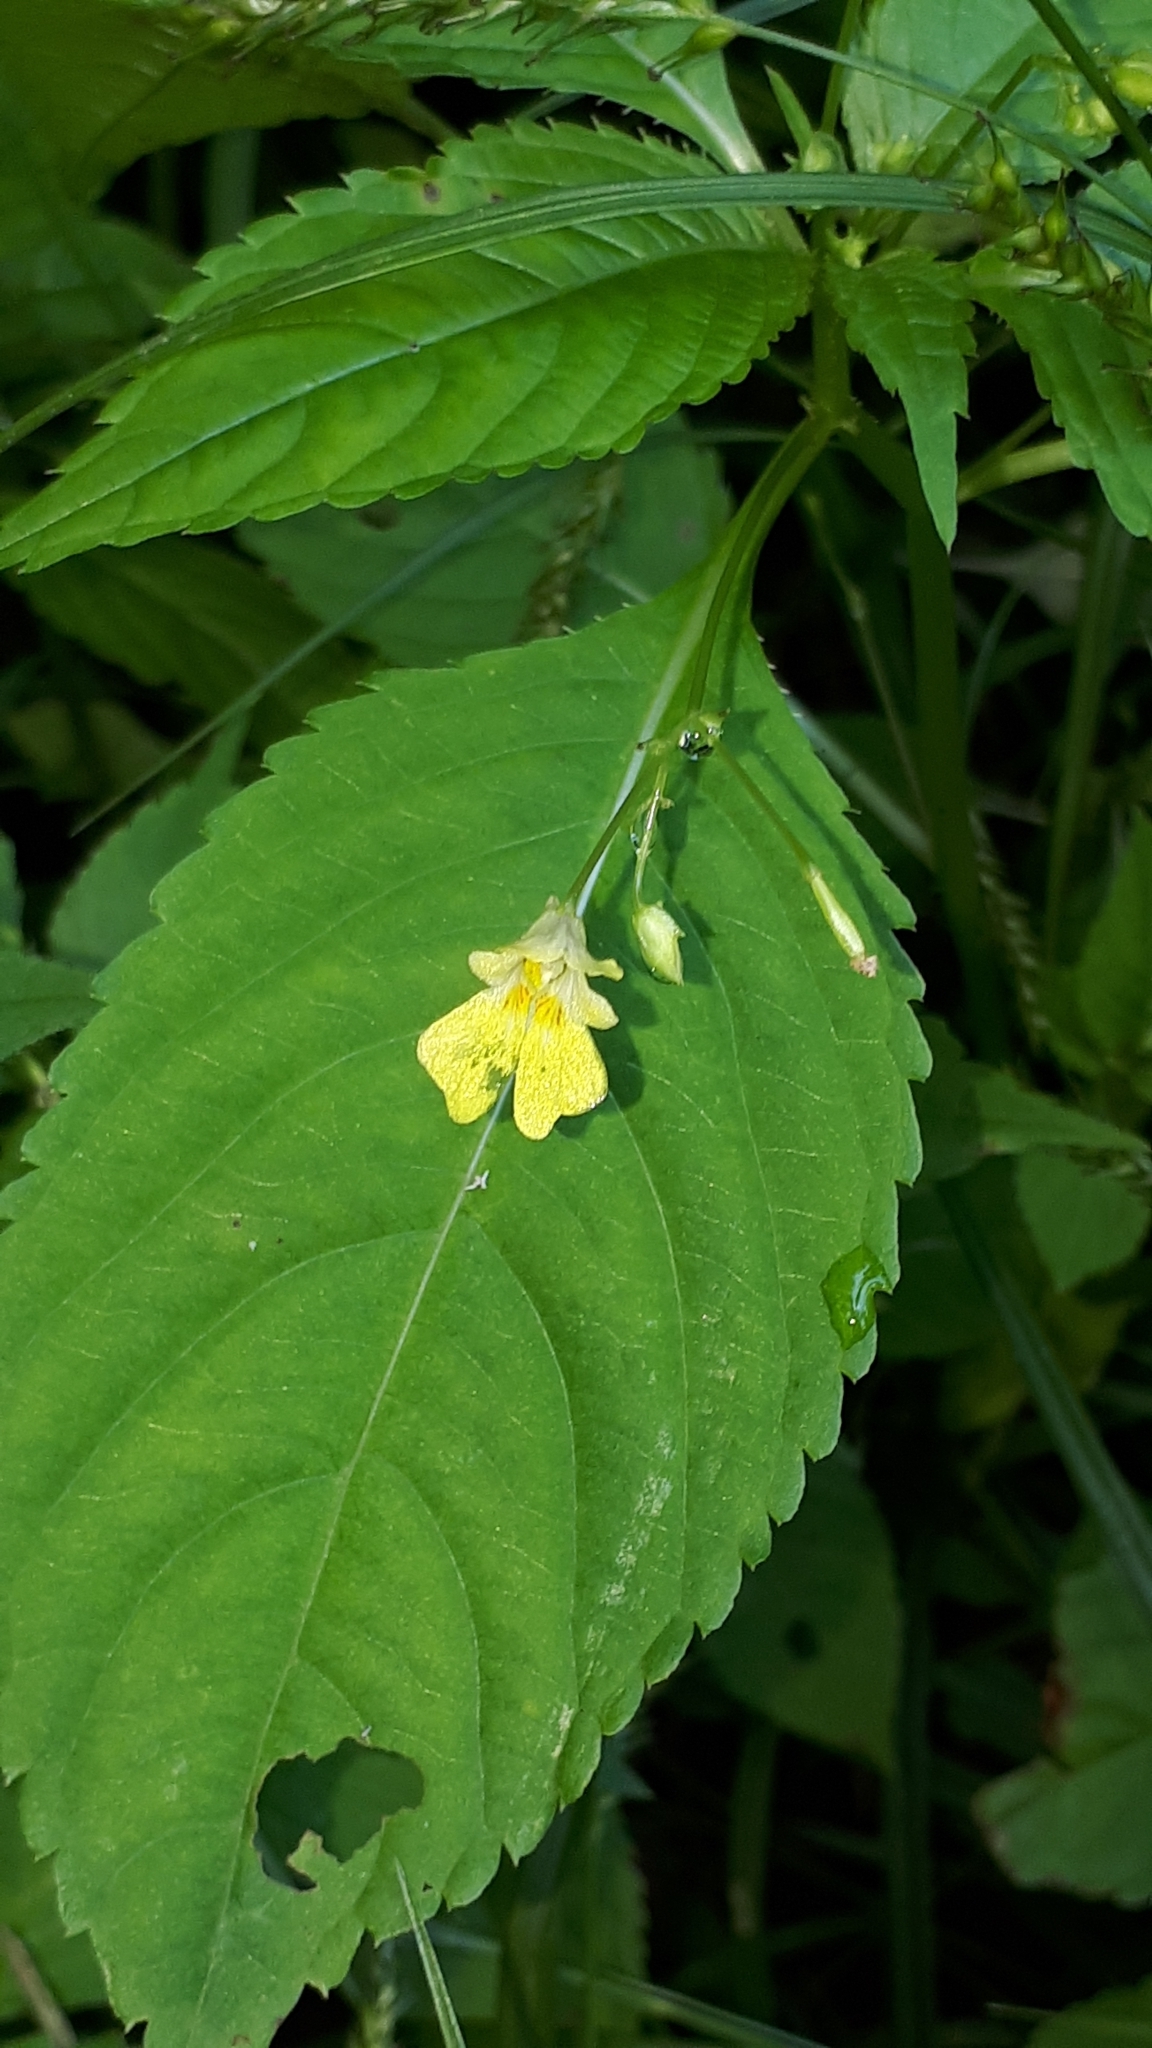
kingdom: Plantae
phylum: Tracheophyta
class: Magnoliopsida
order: Ericales
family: Balsaminaceae
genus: Impatiens
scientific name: Impatiens parviflora
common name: Small balsam
